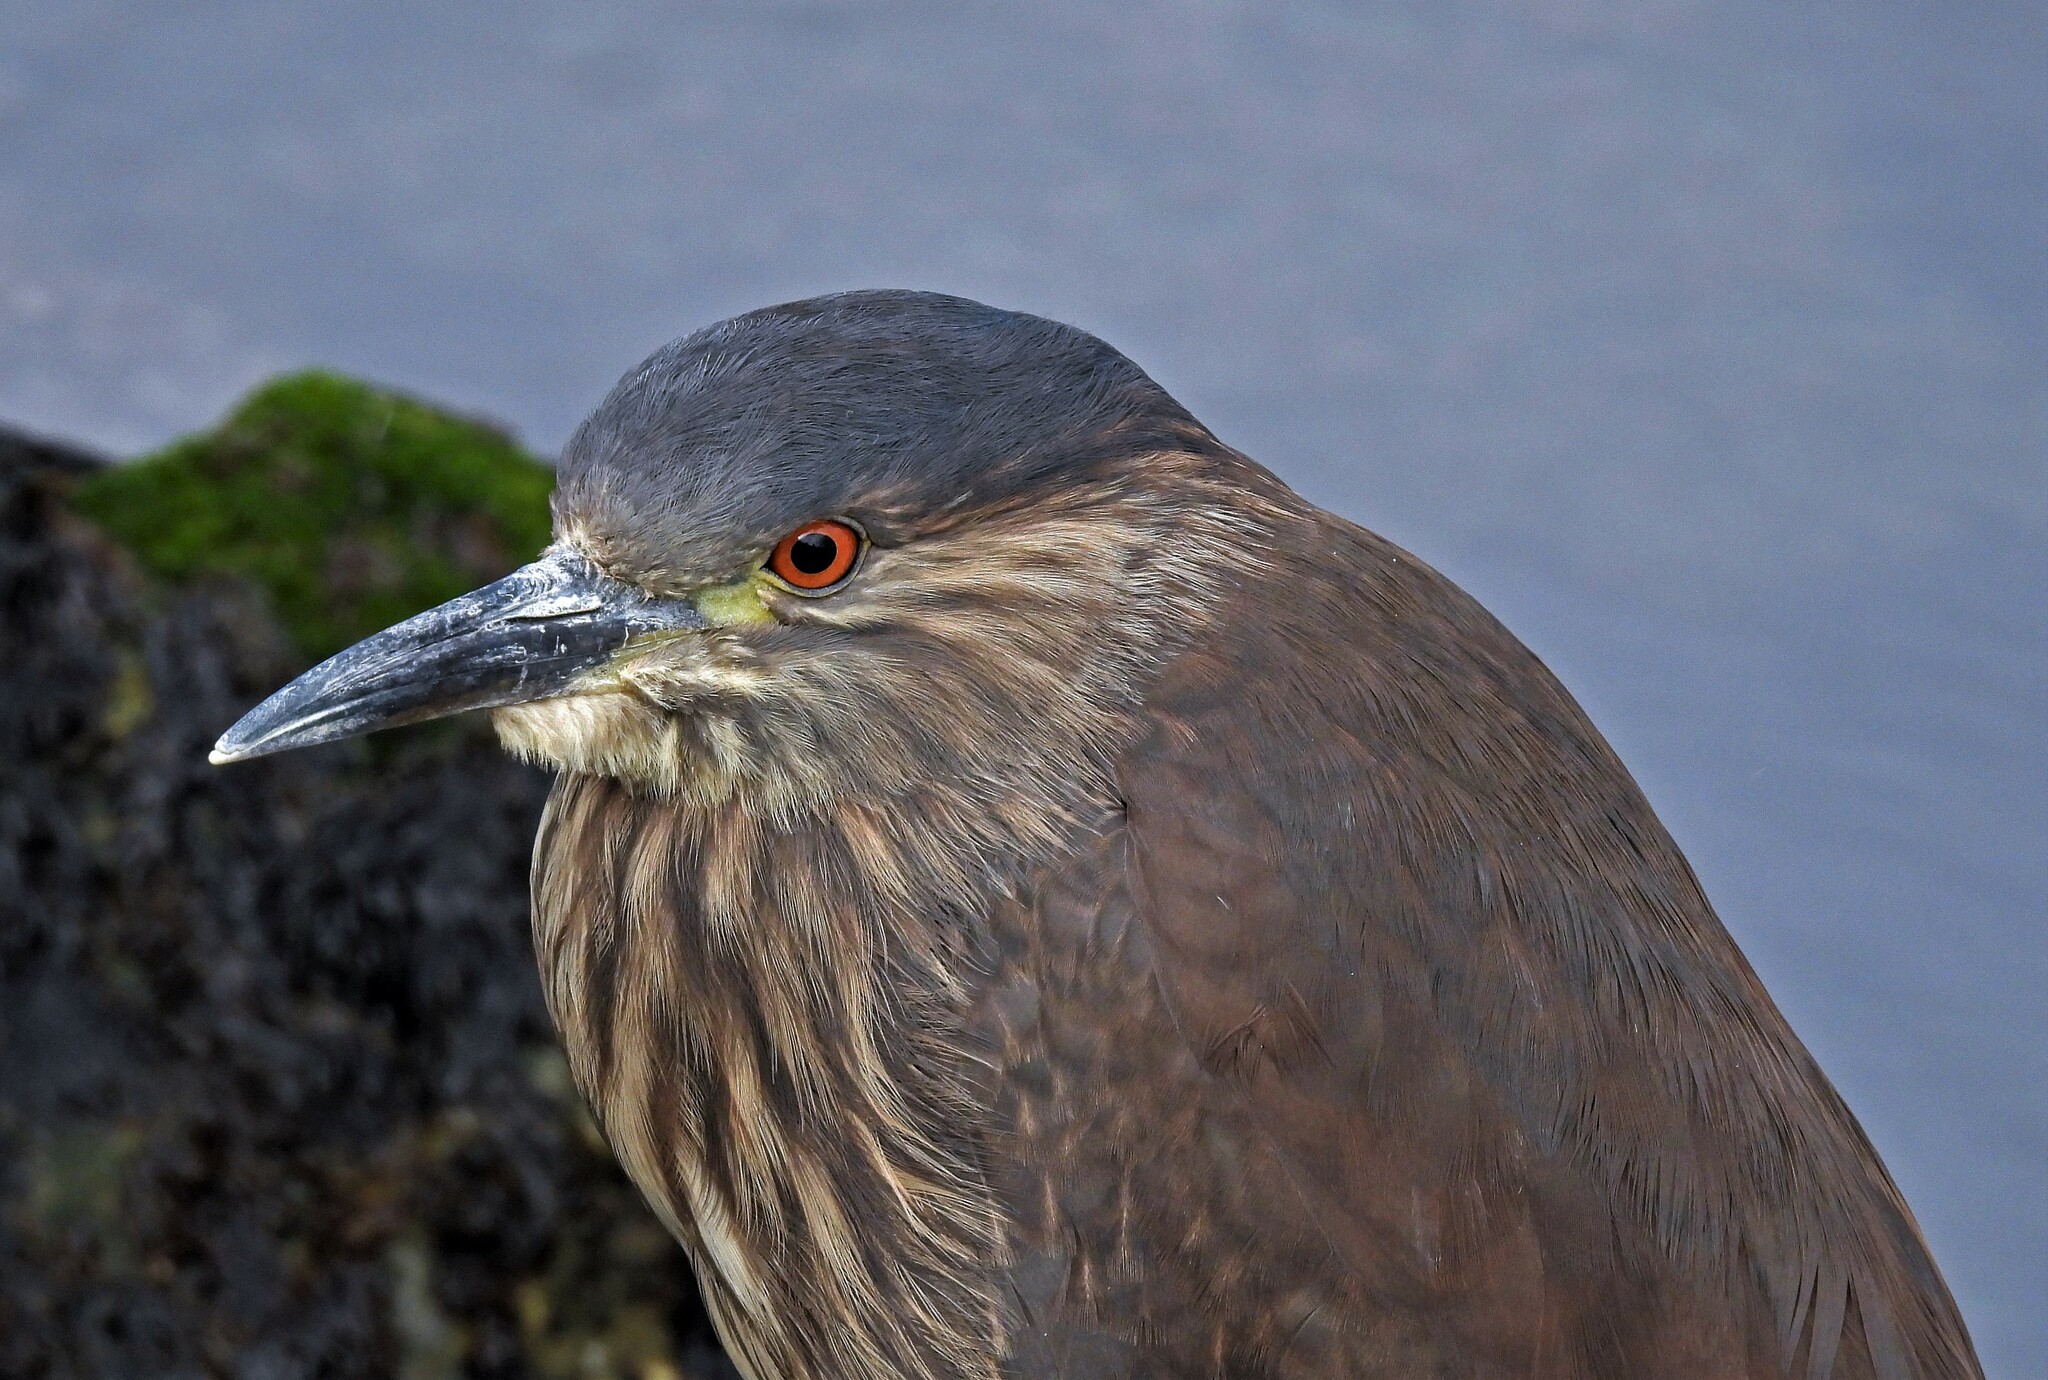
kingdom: Animalia
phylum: Chordata
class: Aves
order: Pelecaniformes
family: Ardeidae
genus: Nycticorax
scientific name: Nycticorax nycticorax
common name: Black-crowned night heron
